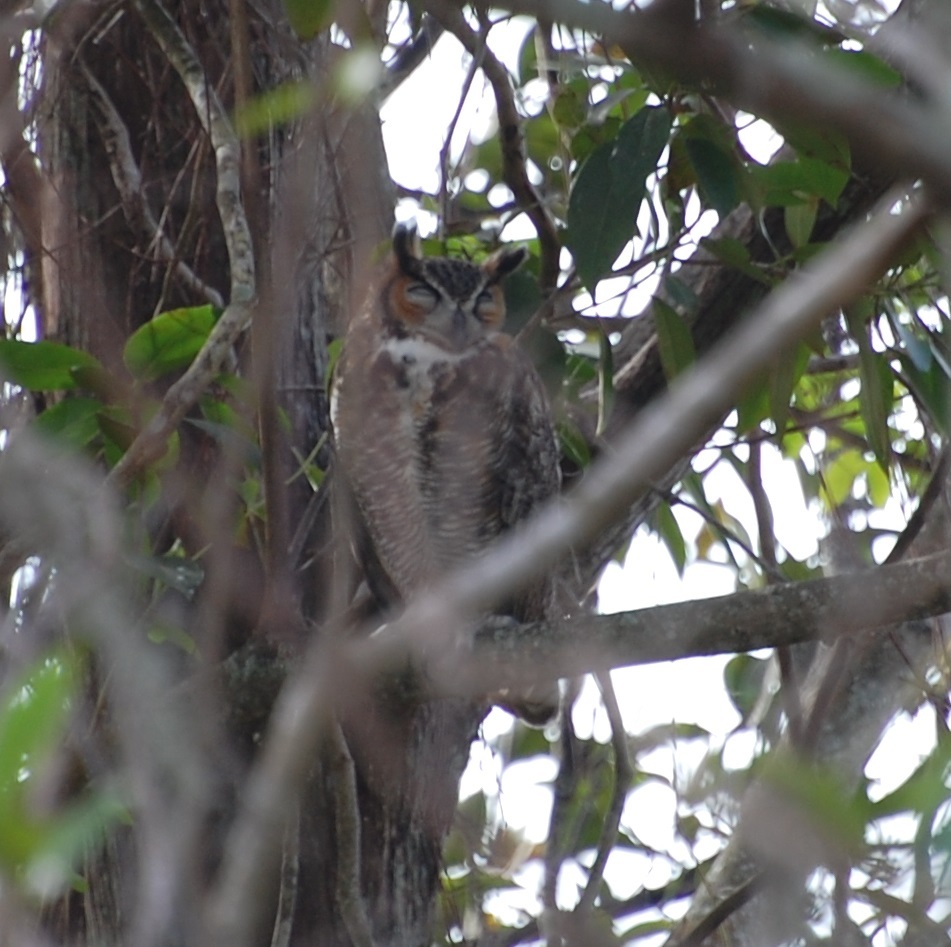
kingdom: Animalia
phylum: Chordata
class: Aves
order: Strigiformes
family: Strigidae
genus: Bubo
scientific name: Bubo virginianus
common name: Great horned owl
